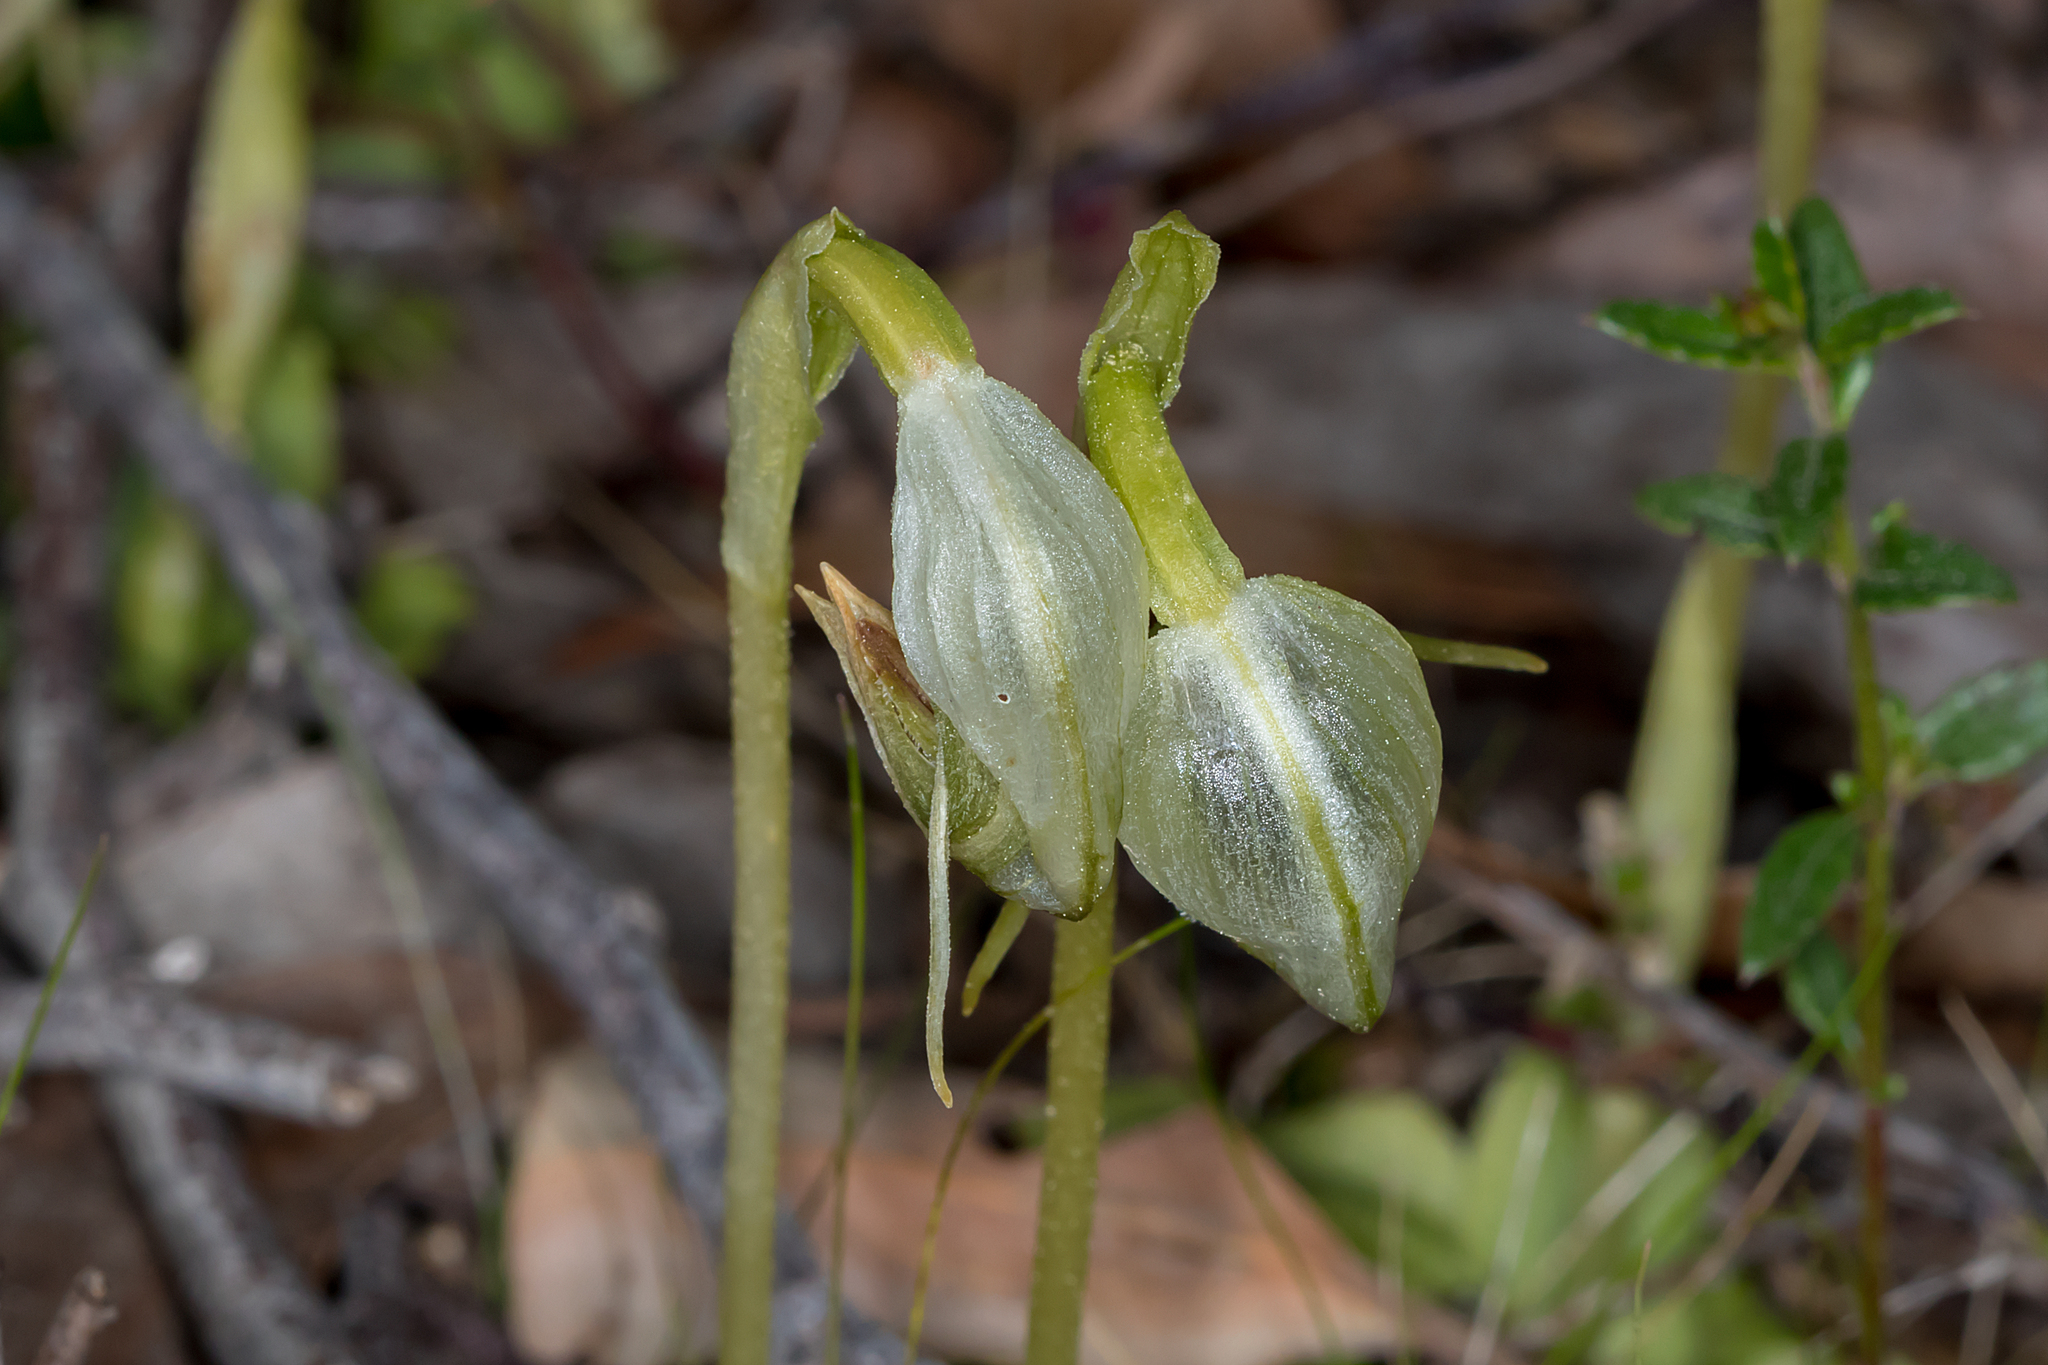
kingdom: Plantae
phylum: Tracheophyta
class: Liliopsida
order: Asparagales
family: Orchidaceae
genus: Pterostylis
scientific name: Pterostylis nutans
